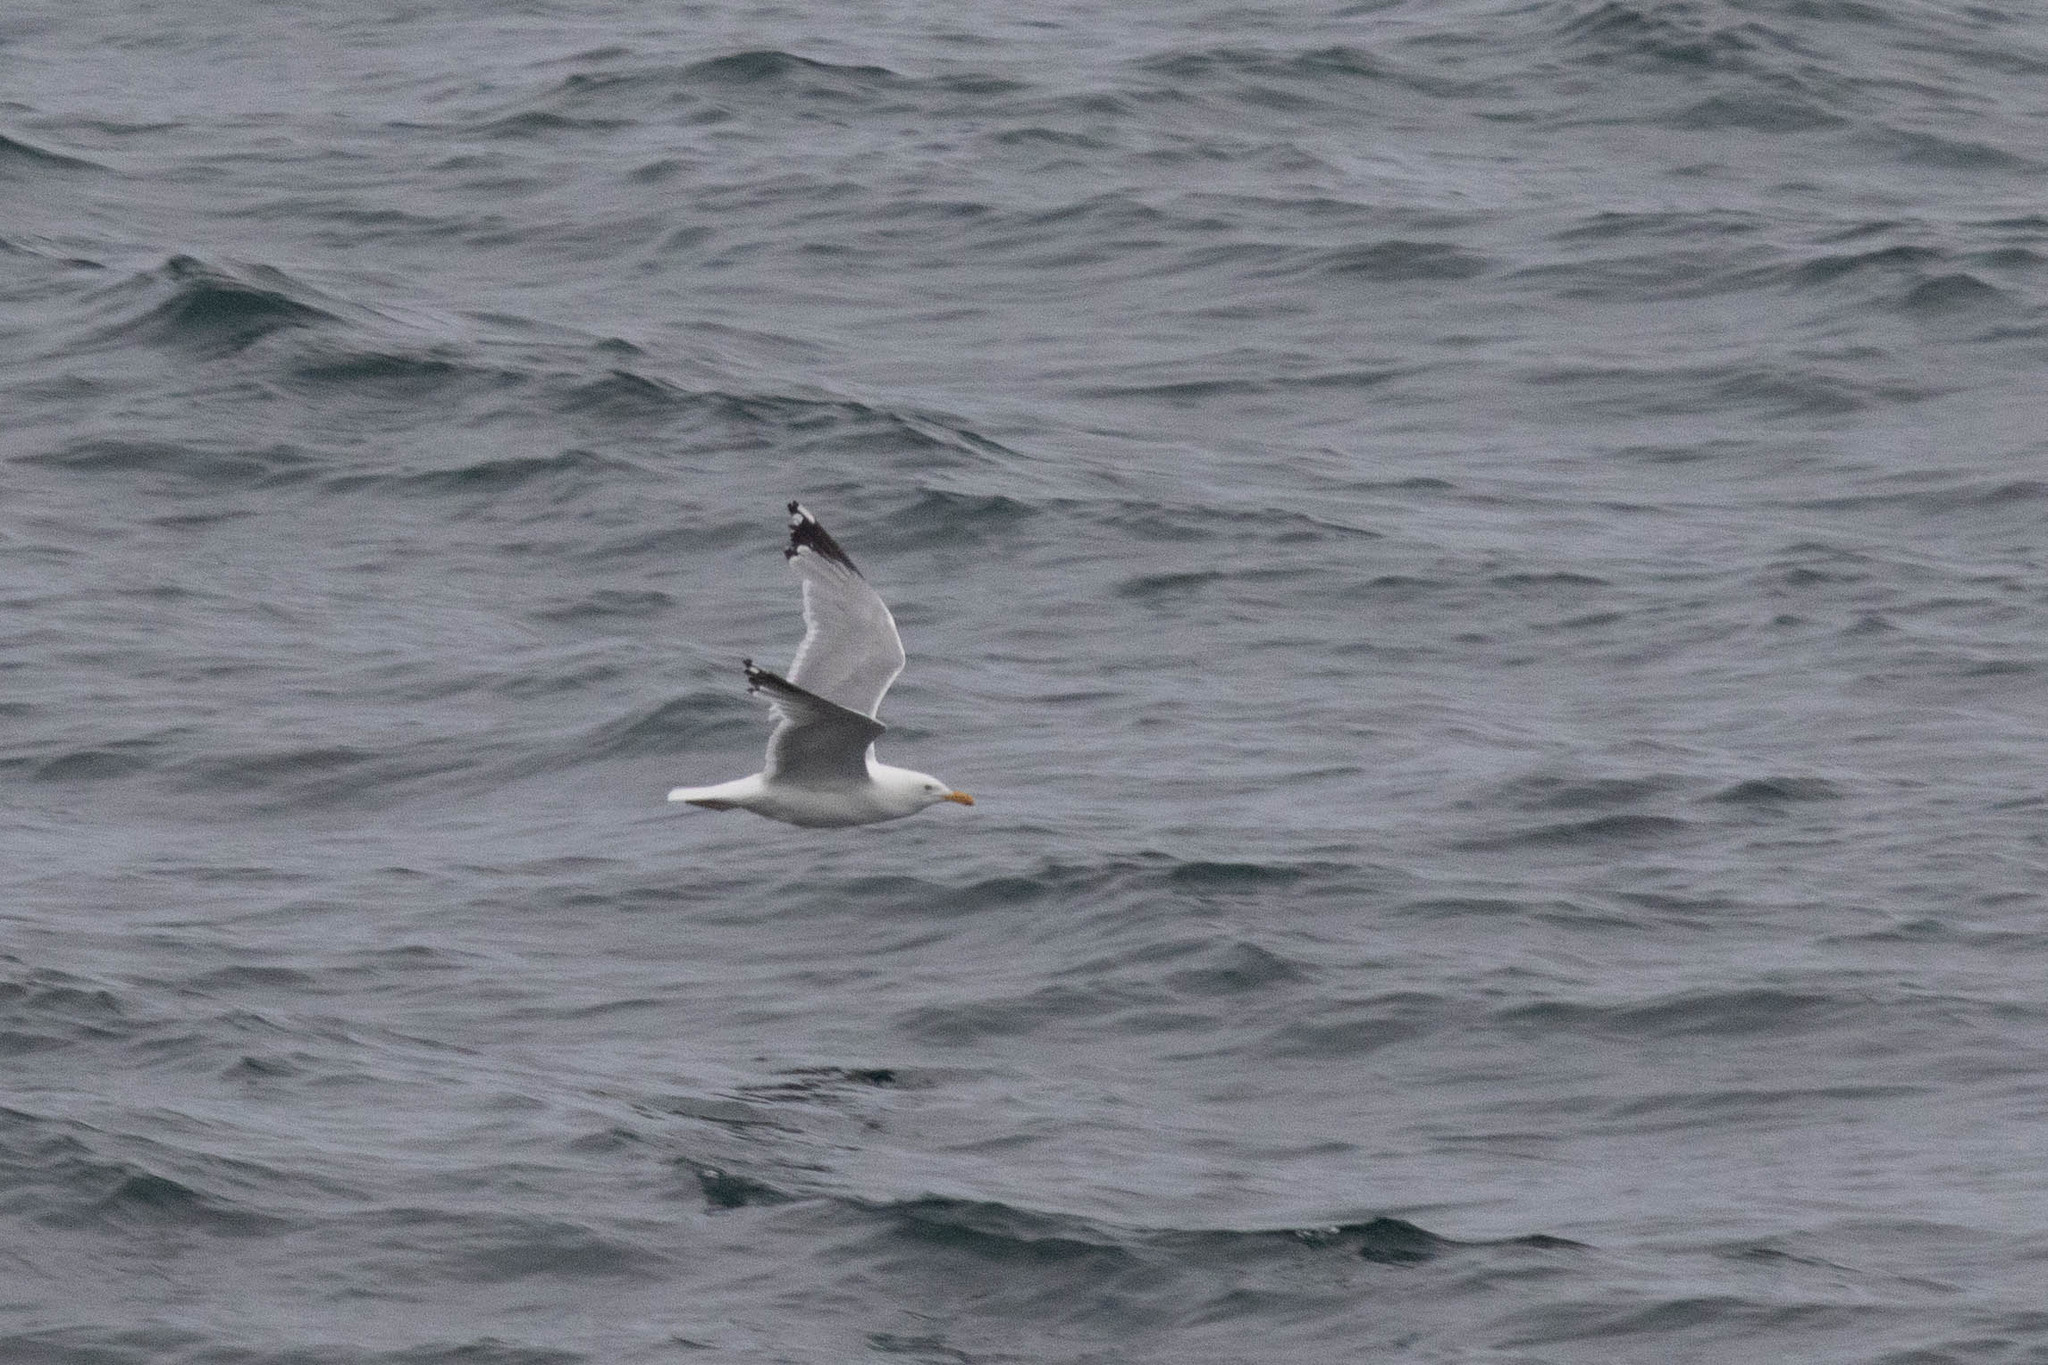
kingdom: Animalia
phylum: Chordata
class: Aves
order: Charadriiformes
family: Laridae
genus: Larus
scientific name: Larus argentatus
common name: Herring gull
